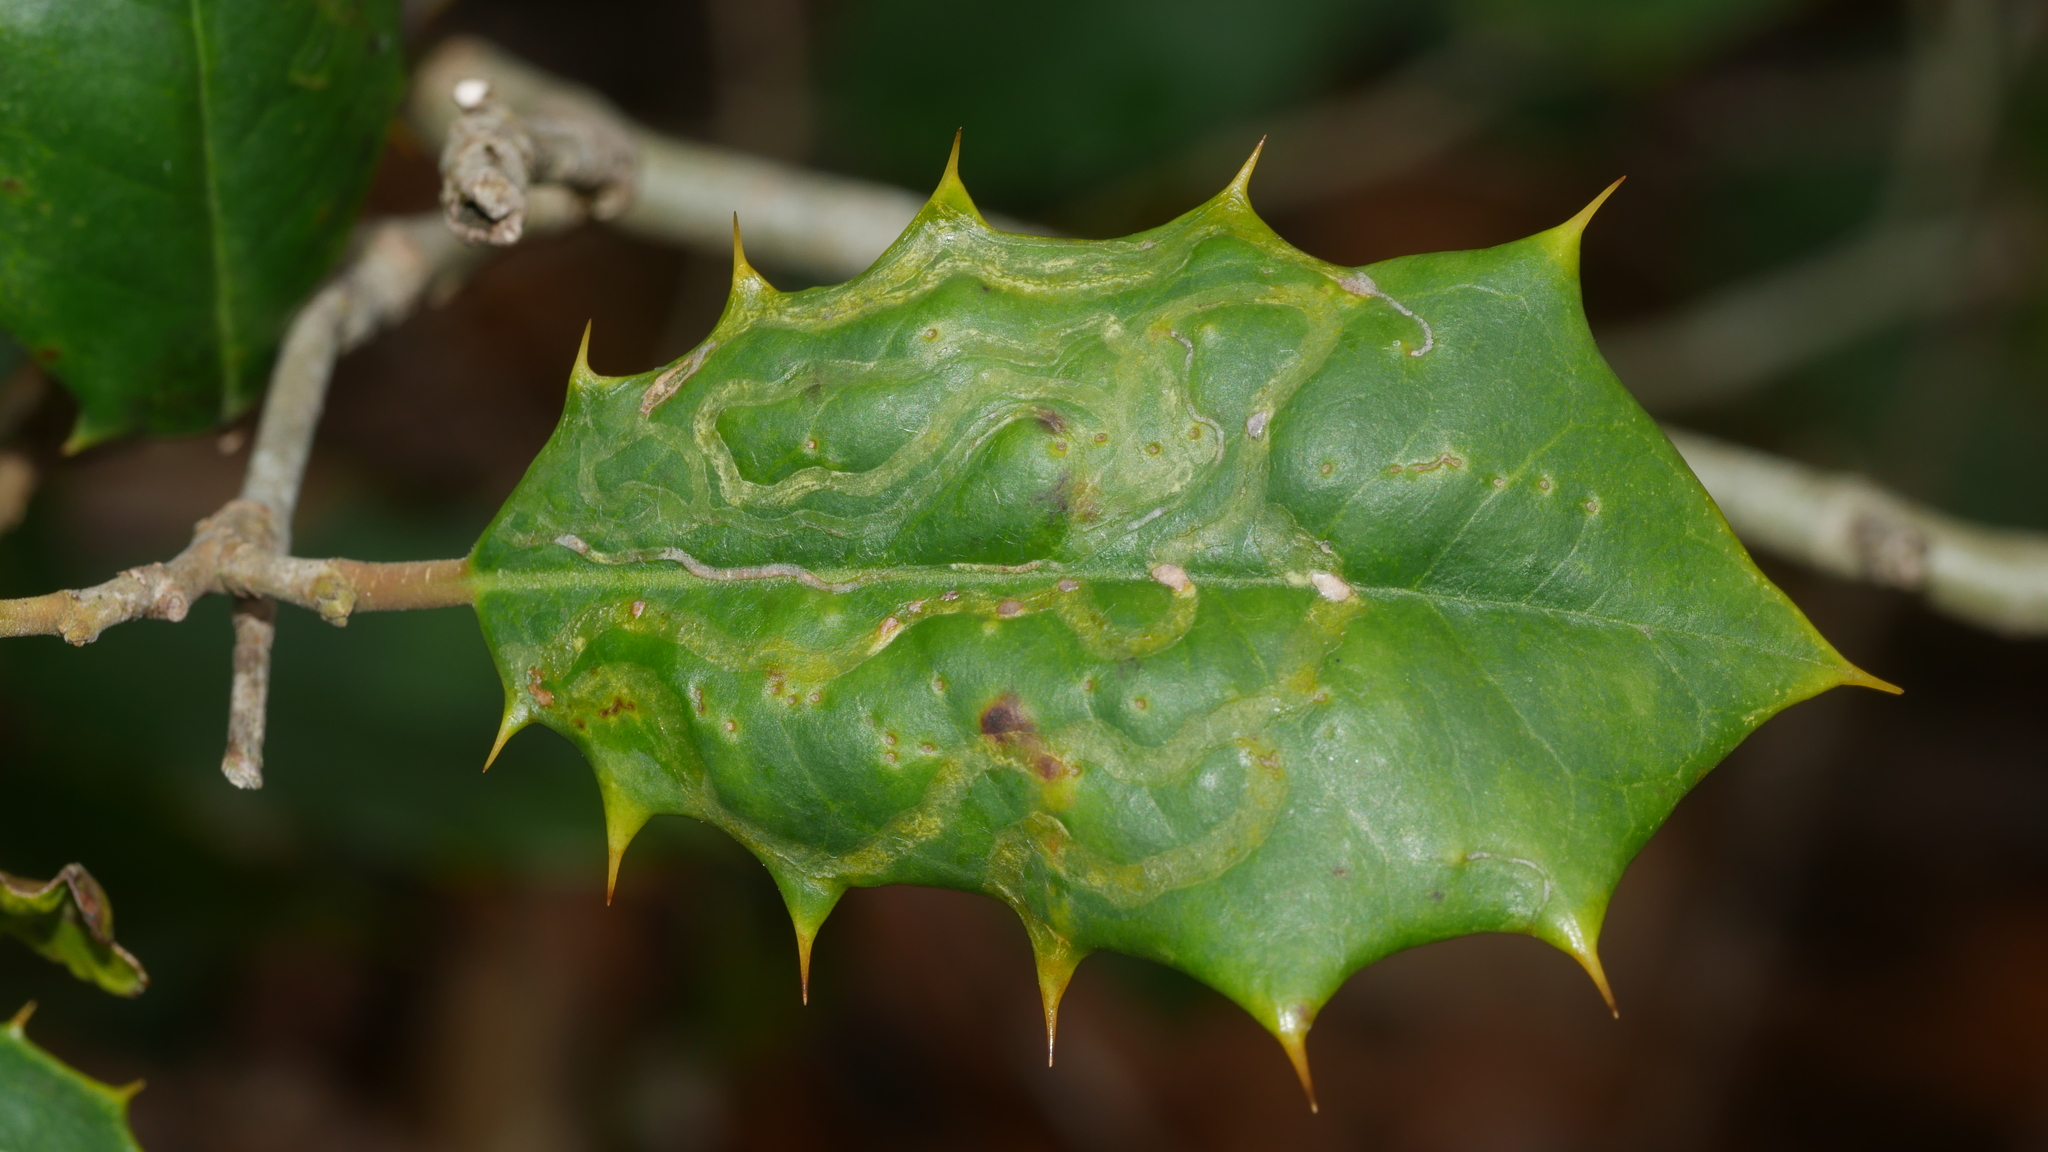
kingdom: Animalia
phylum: Arthropoda
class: Insecta
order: Diptera
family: Agromyzidae
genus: Phytomyza
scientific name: Phytomyza opacae
